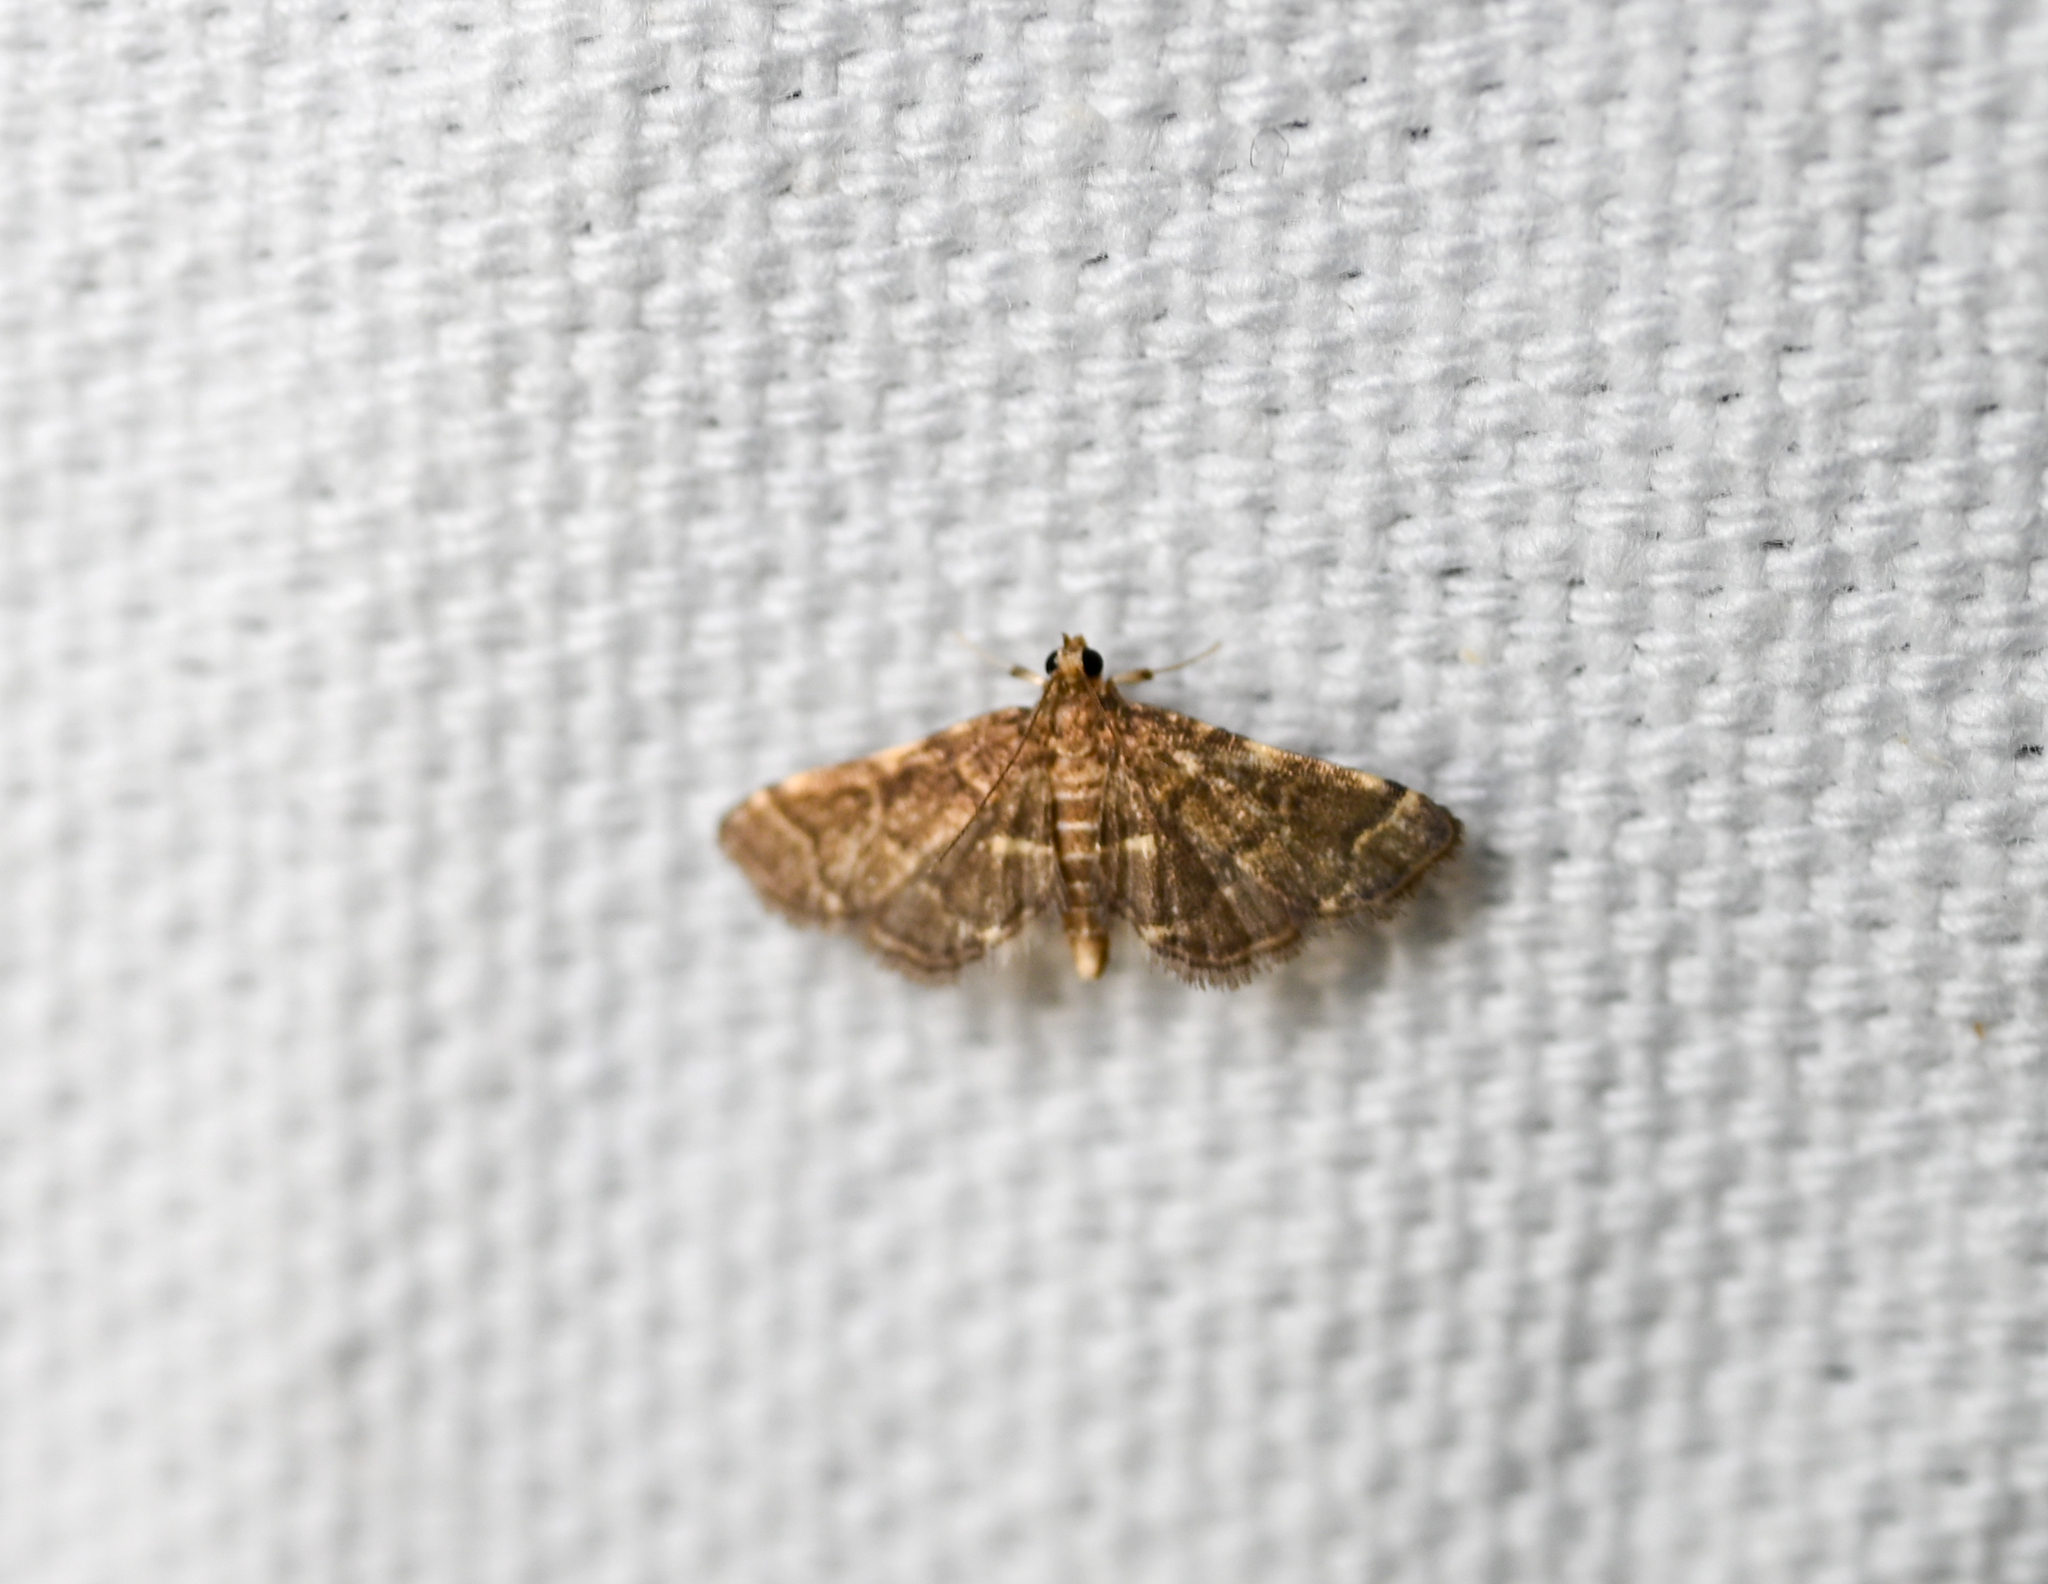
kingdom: Animalia
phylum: Arthropoda
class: Insecta
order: Lepidoptera
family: Crambidae
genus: Anageshna
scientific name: Anageshna primordialis
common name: Yellow-spotted webworm moth
